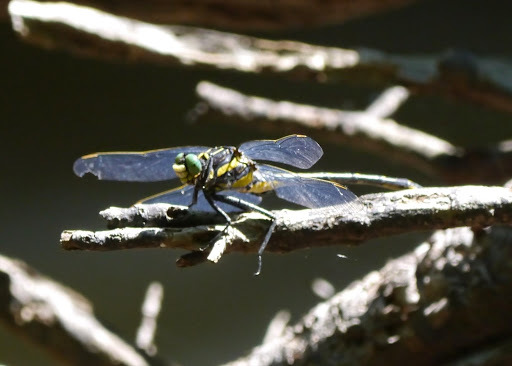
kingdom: Animalia
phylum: Arthropoda
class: Insecta
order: Odonata
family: Gomphidae
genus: Hagenius
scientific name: Hagenius brevistylus
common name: Dragonhunter
